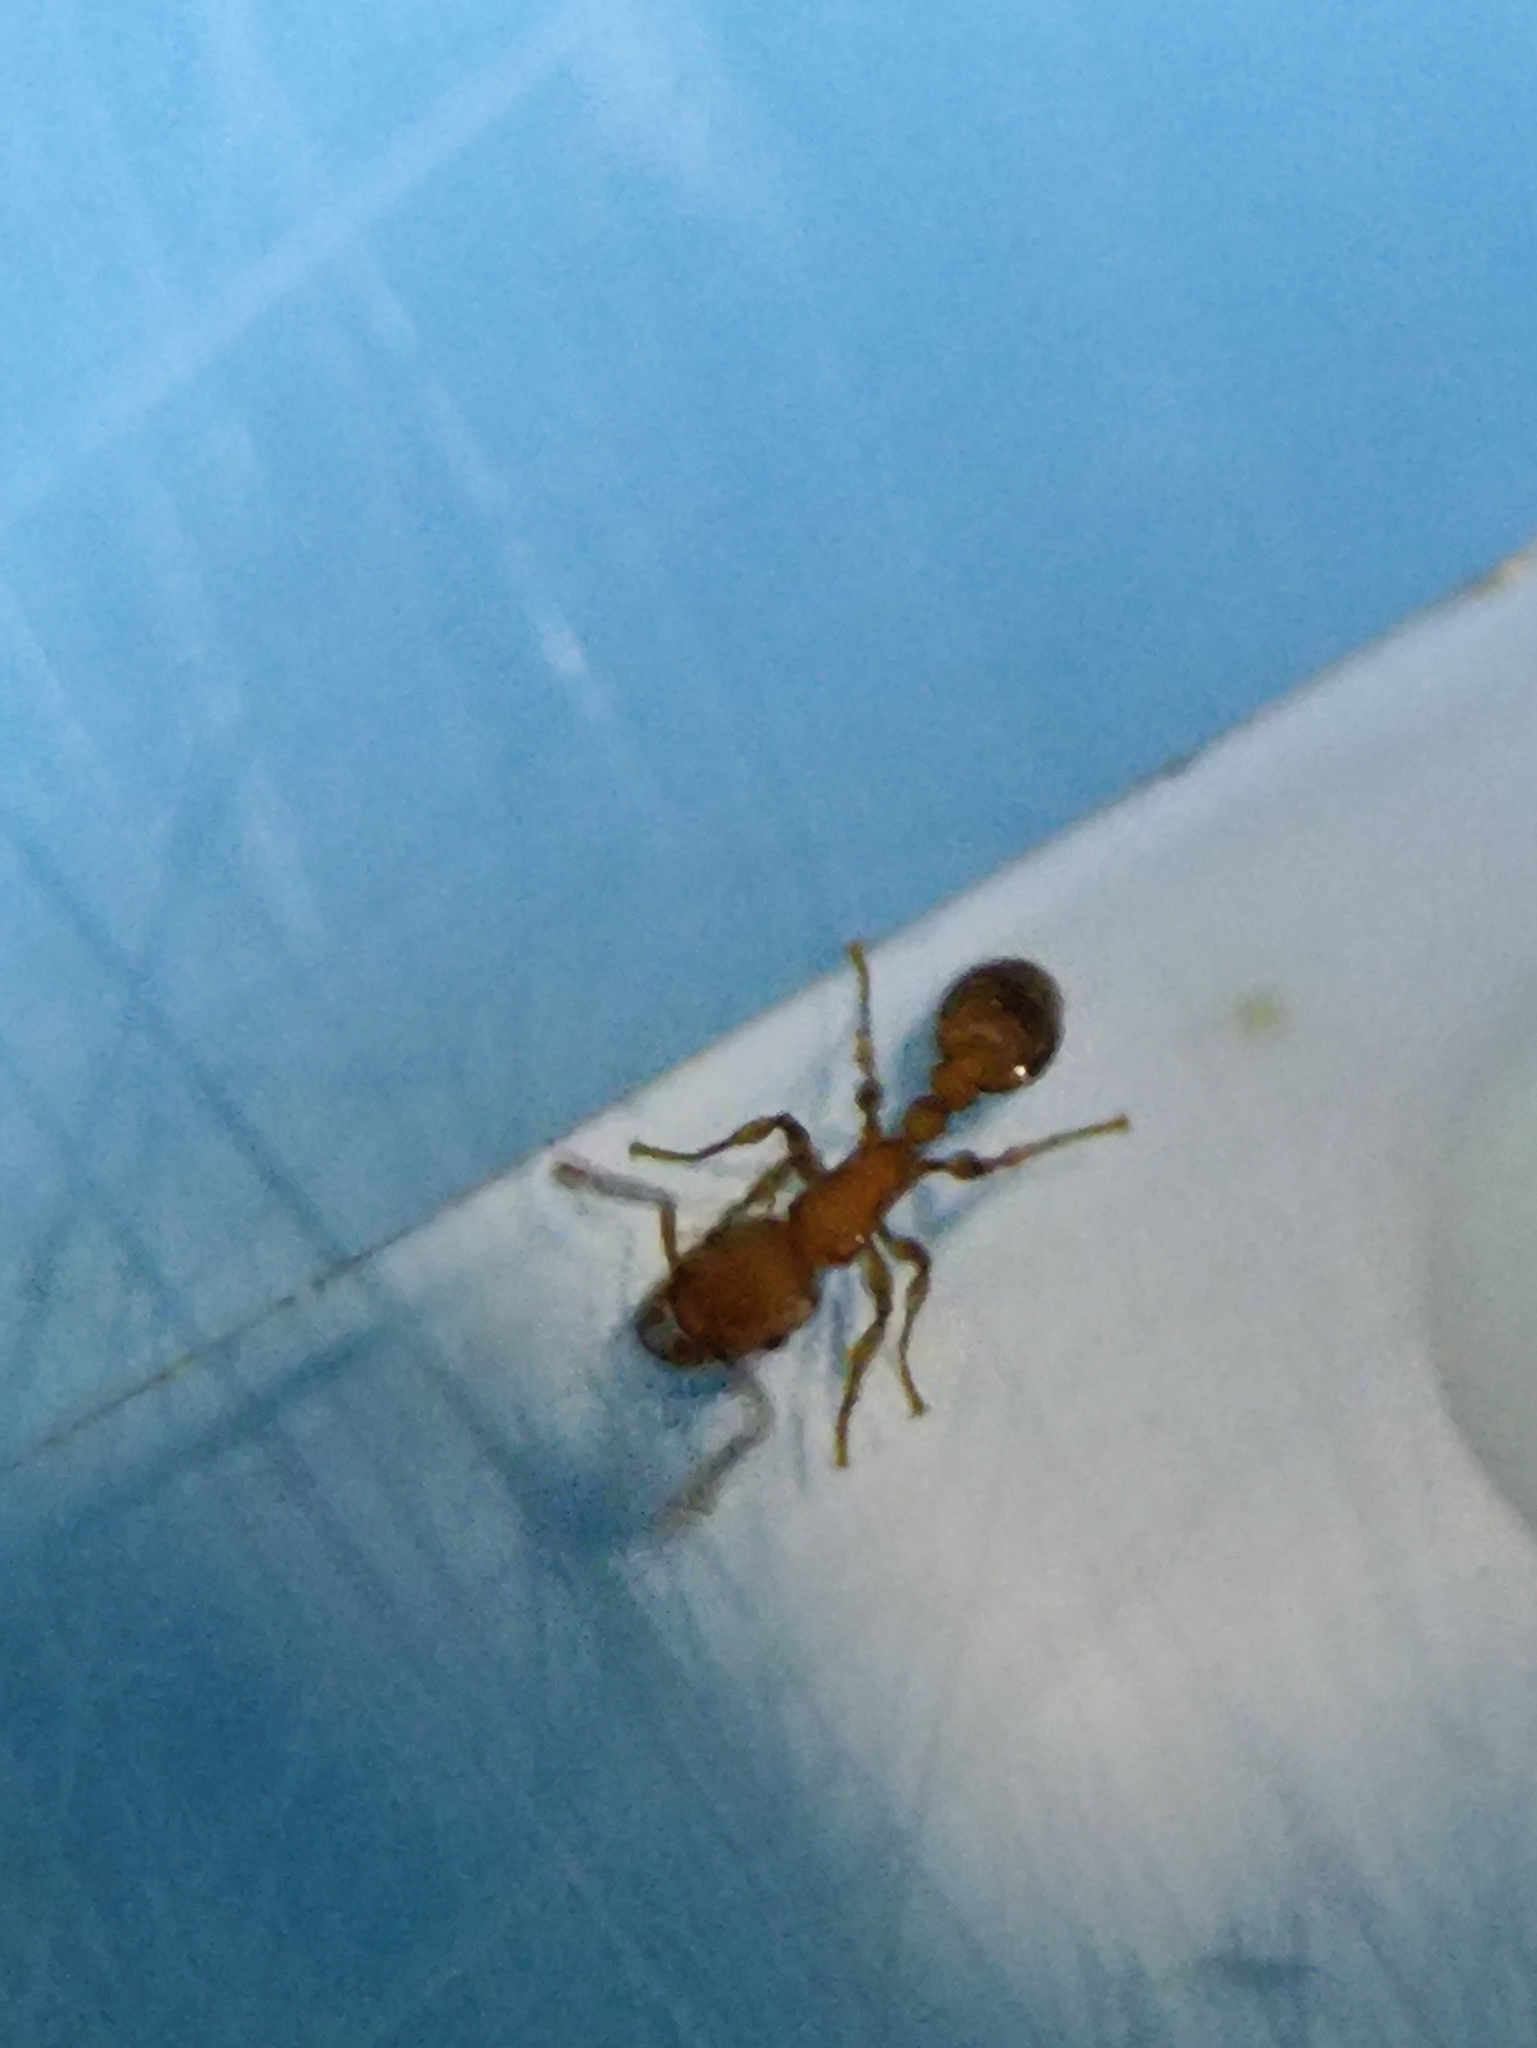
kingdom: Animalia
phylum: Arthropoda
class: Insecta
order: Hymenoptera
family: Formicidae
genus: Tetramorium
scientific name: Tetramorium bicarinatum
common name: Guinea ant
